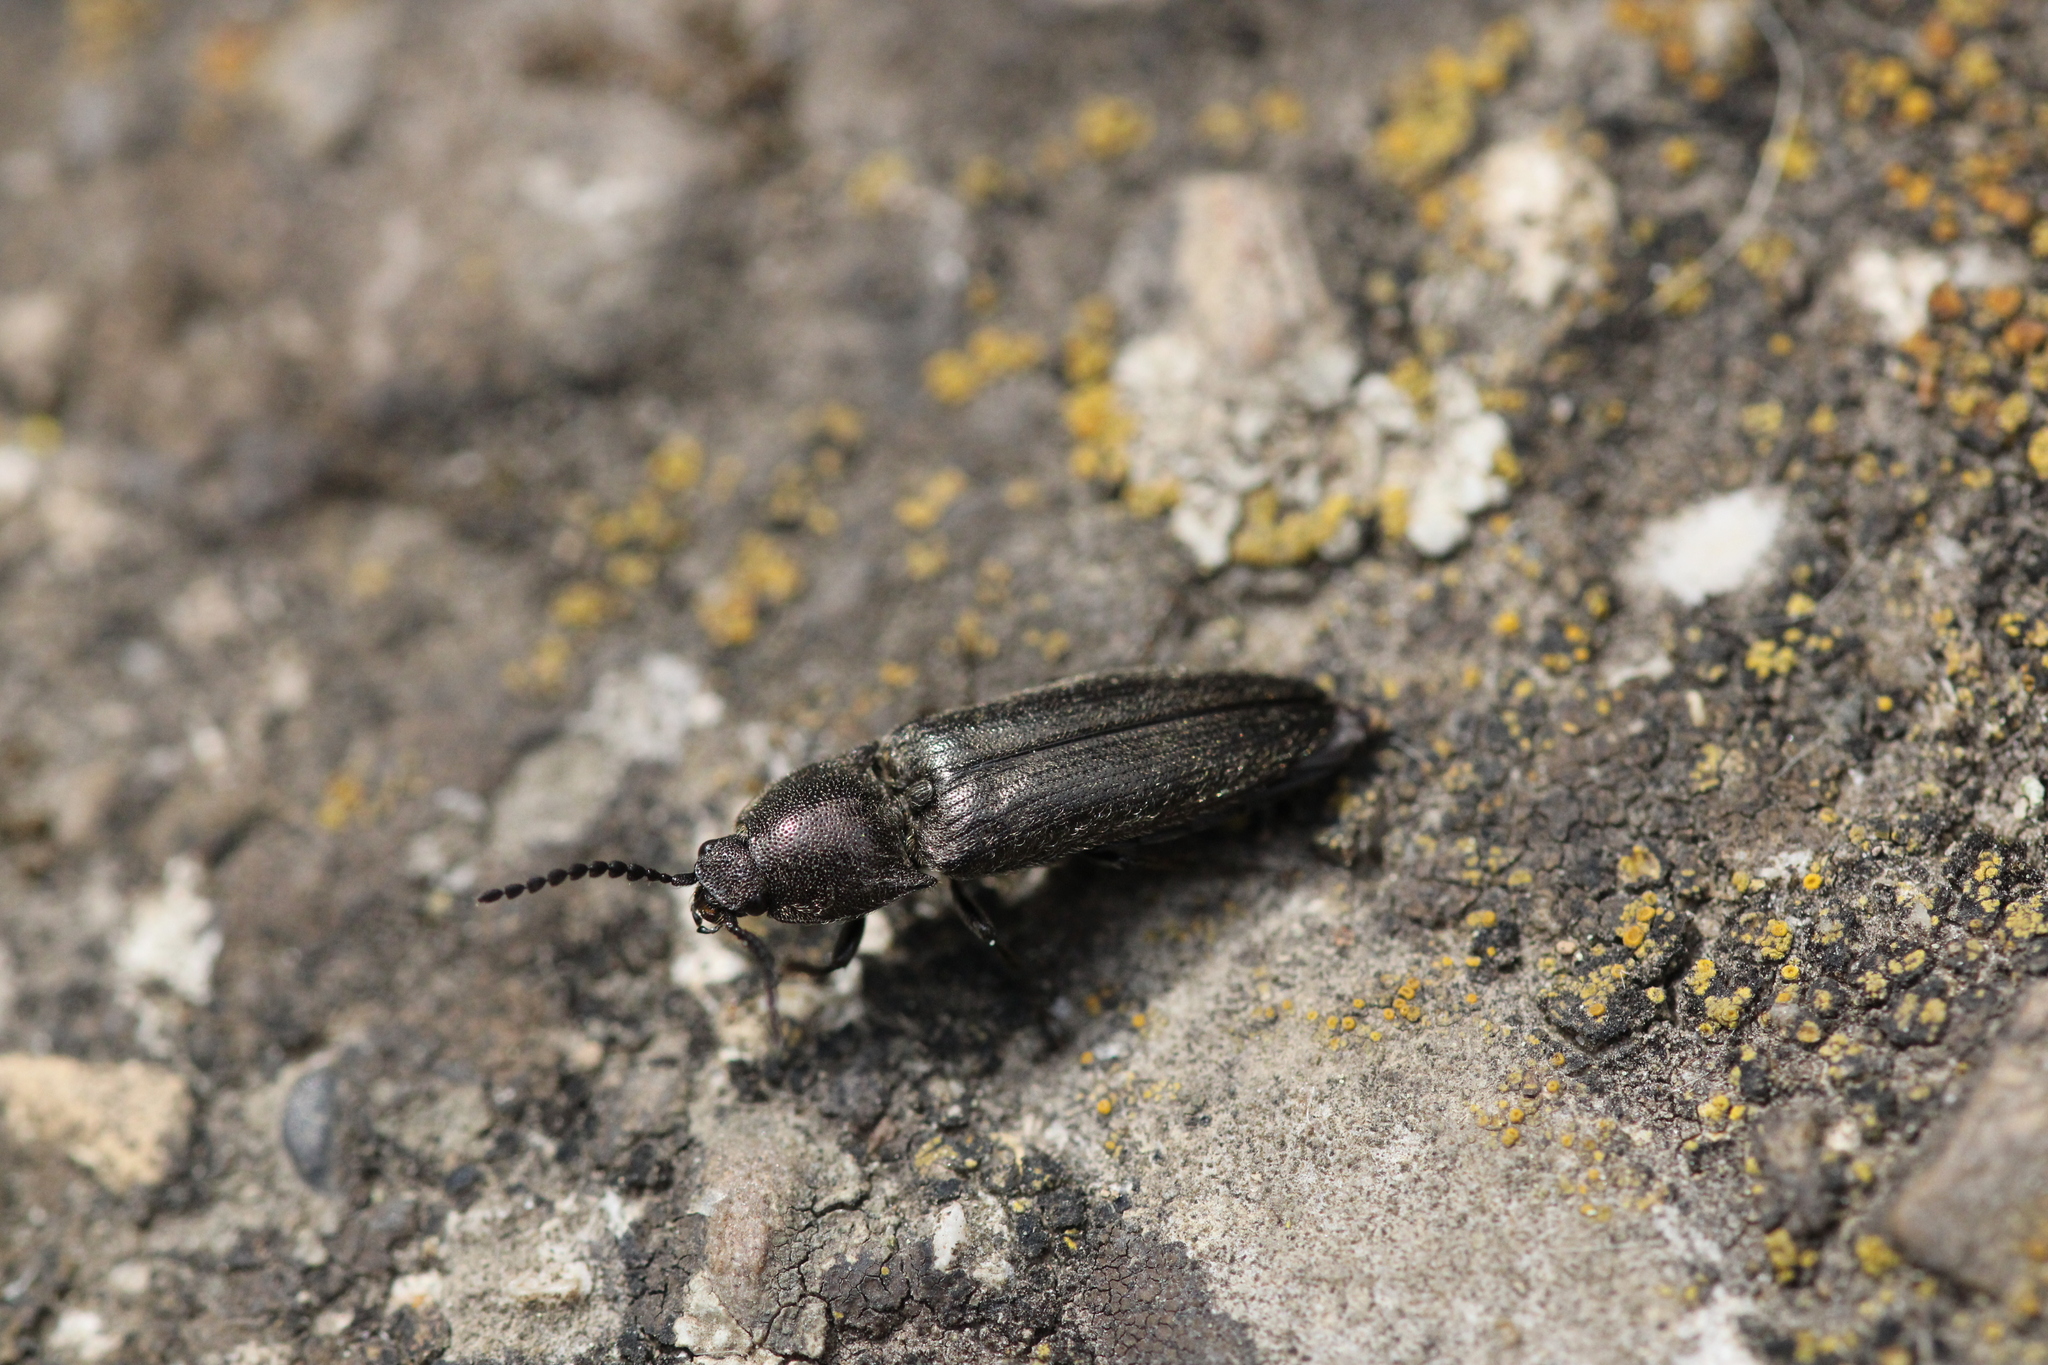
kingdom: Animalia
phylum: Arthropoda
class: Insecta
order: Coleoptera
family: Elateridae
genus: Cidnopus
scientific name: Cidnopus pilosus
